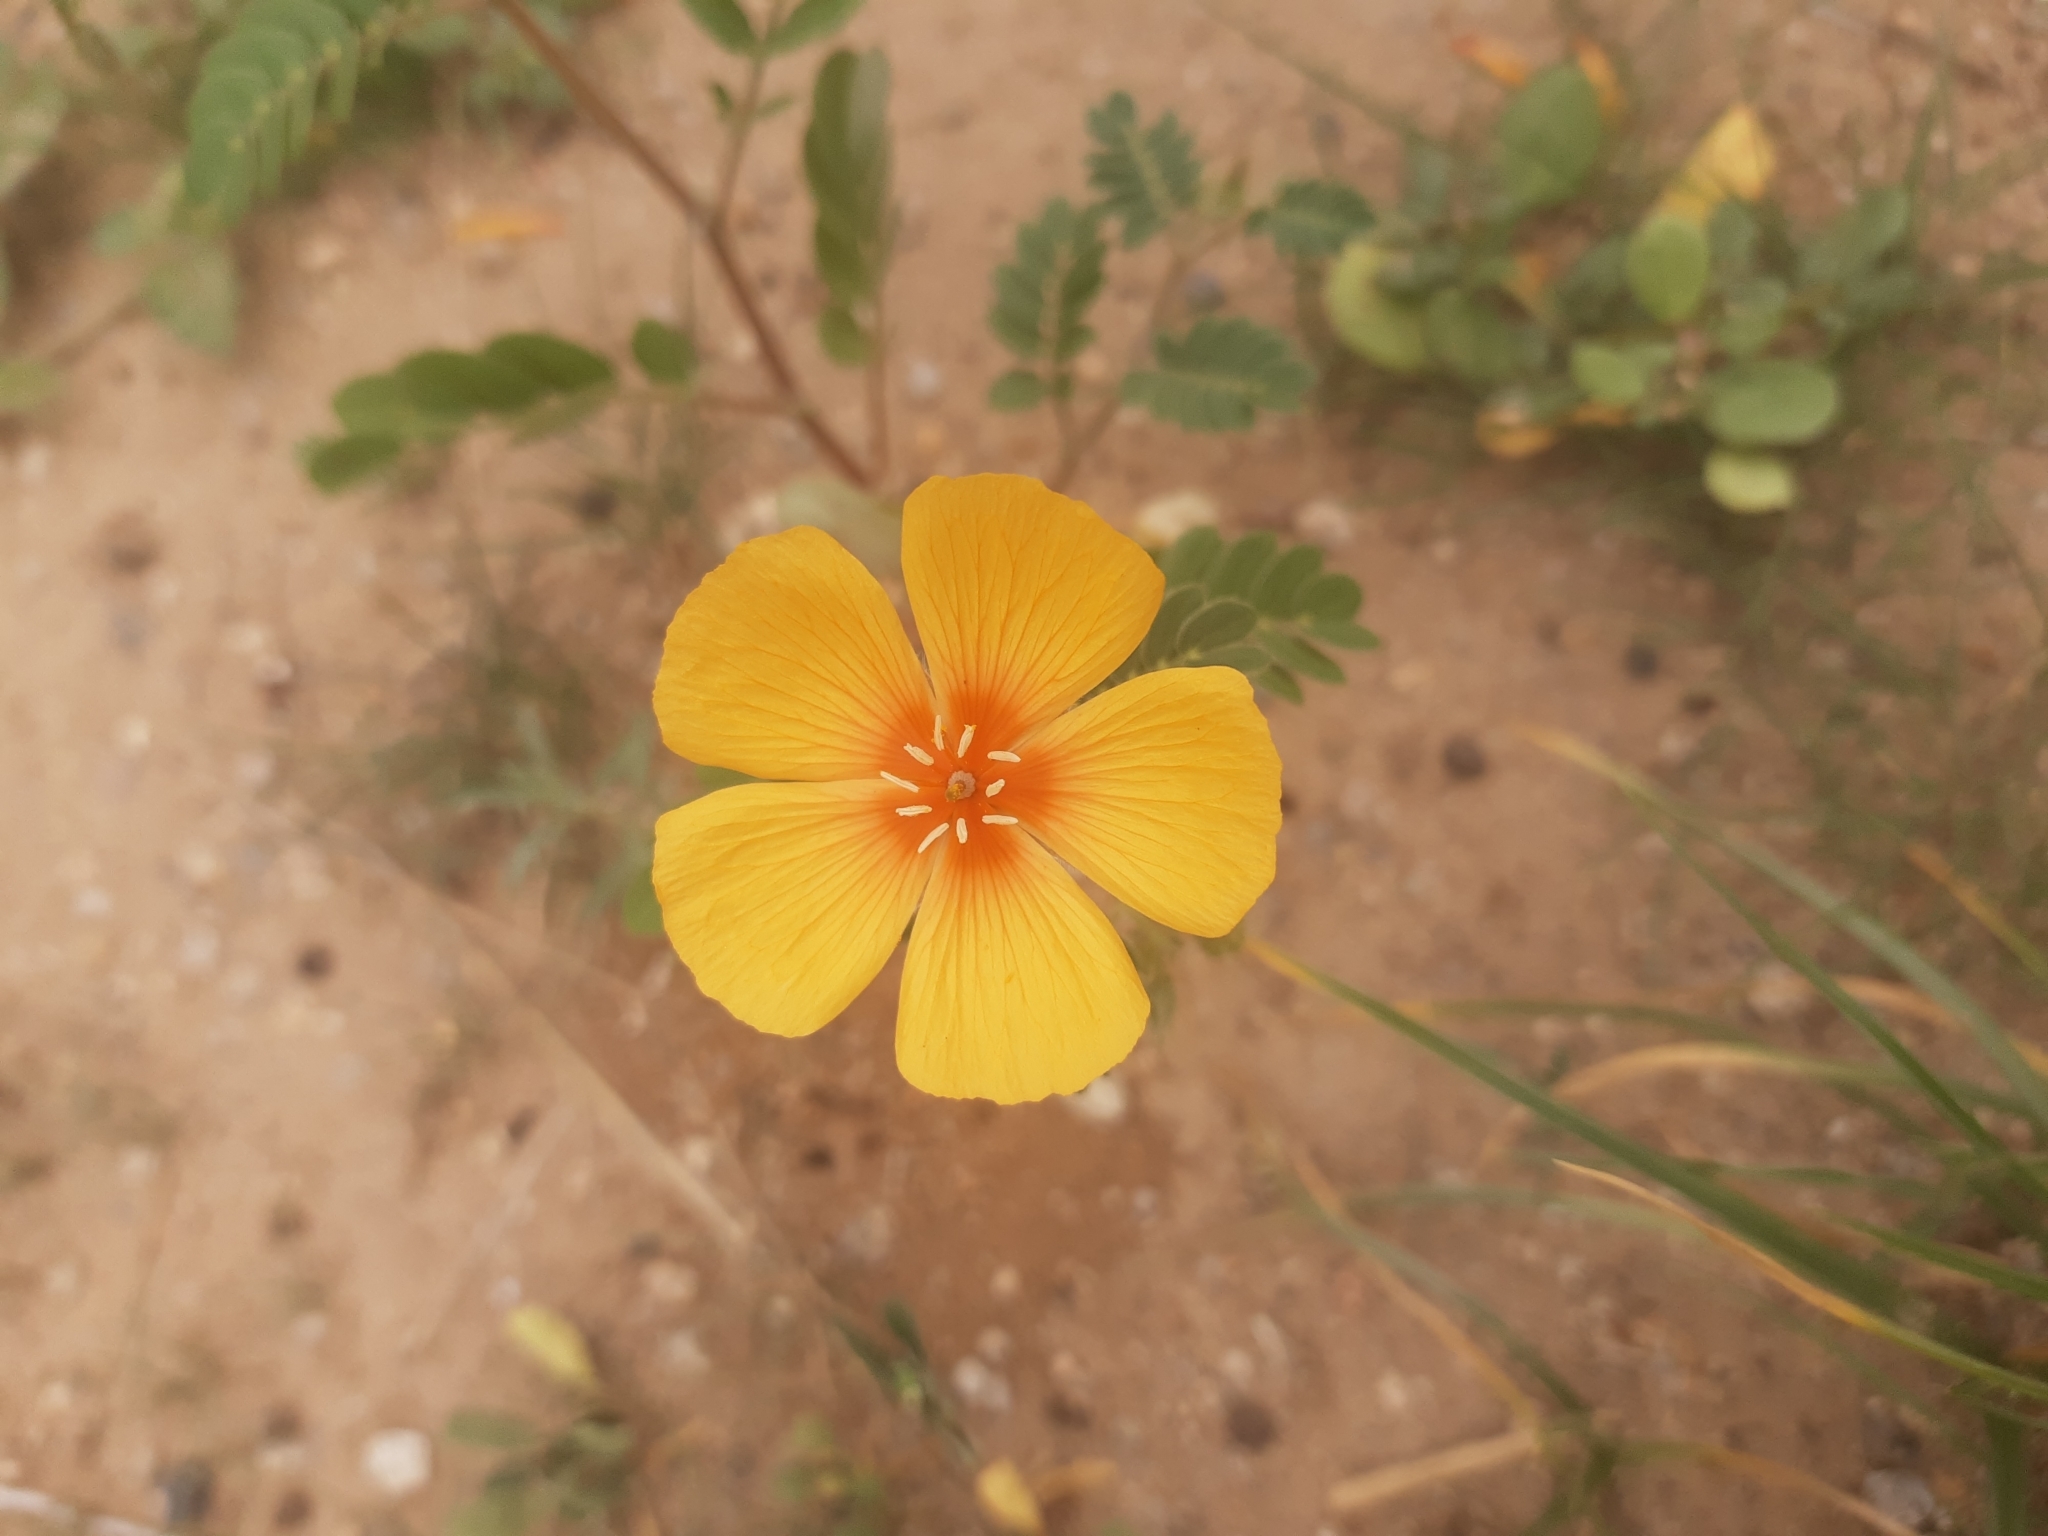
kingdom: Plantae
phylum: Tracheophyta
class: Magnoliopsida
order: Zygophyllales
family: Zygophyllaceae
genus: Kallstroemia
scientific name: Kallstroemia grandiflora
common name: Arizona-poppy
